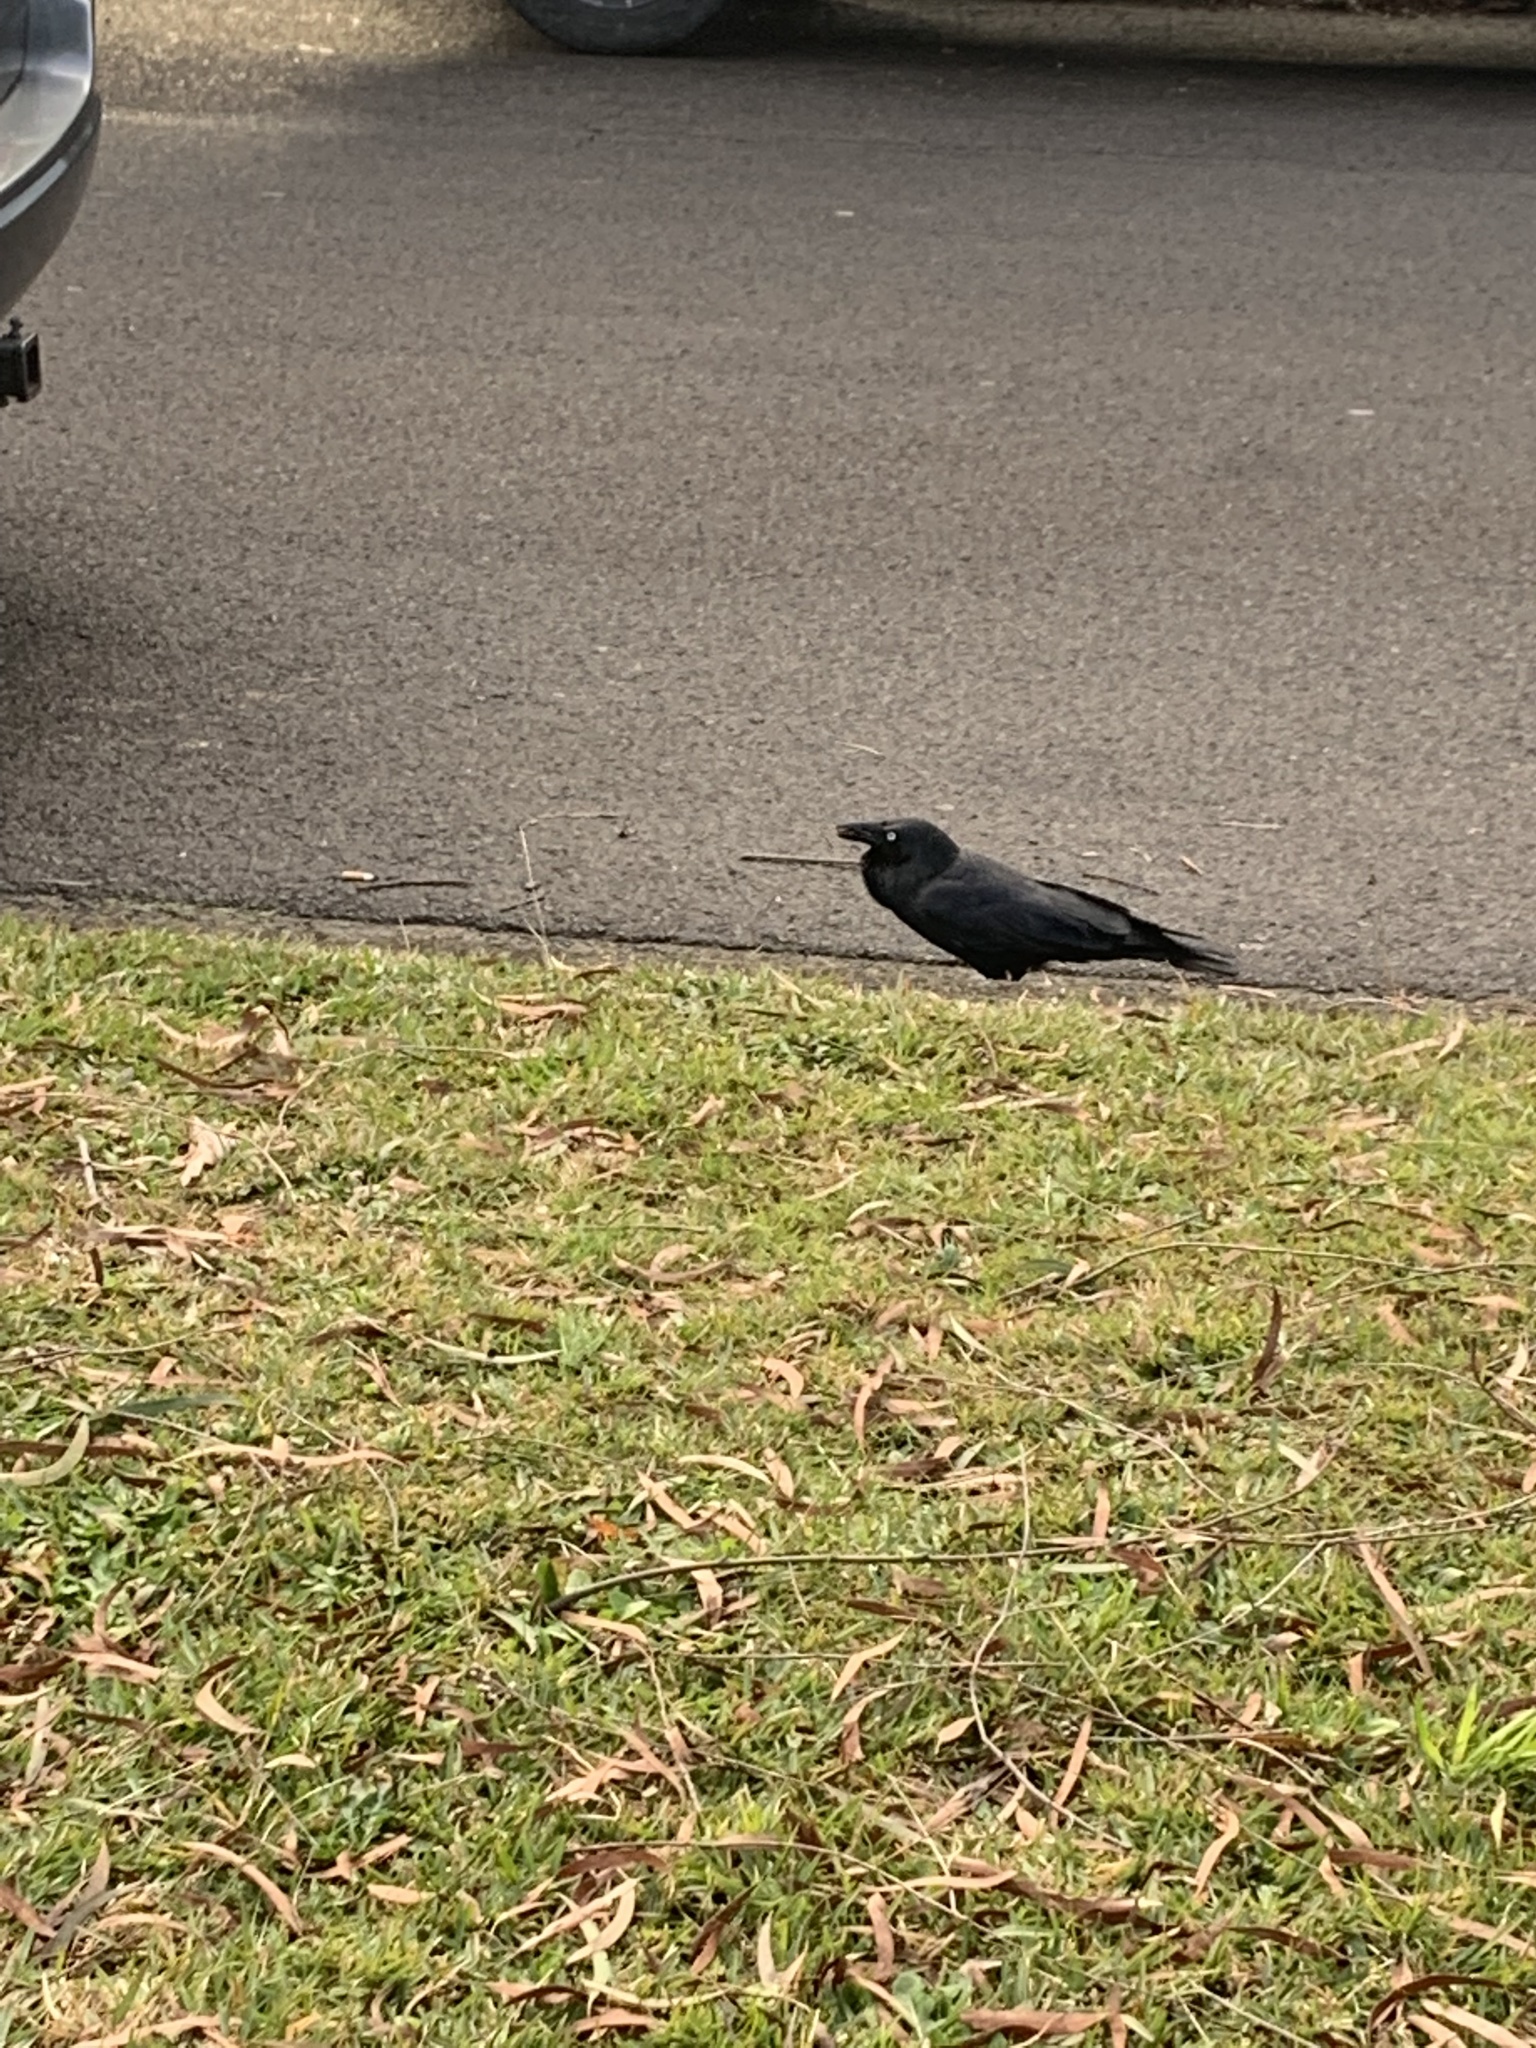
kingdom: Animalia
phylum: Chordata
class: Aves
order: Passeriformes
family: Corvidae
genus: Corvus
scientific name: Corvus coronoides
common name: Australian raven
